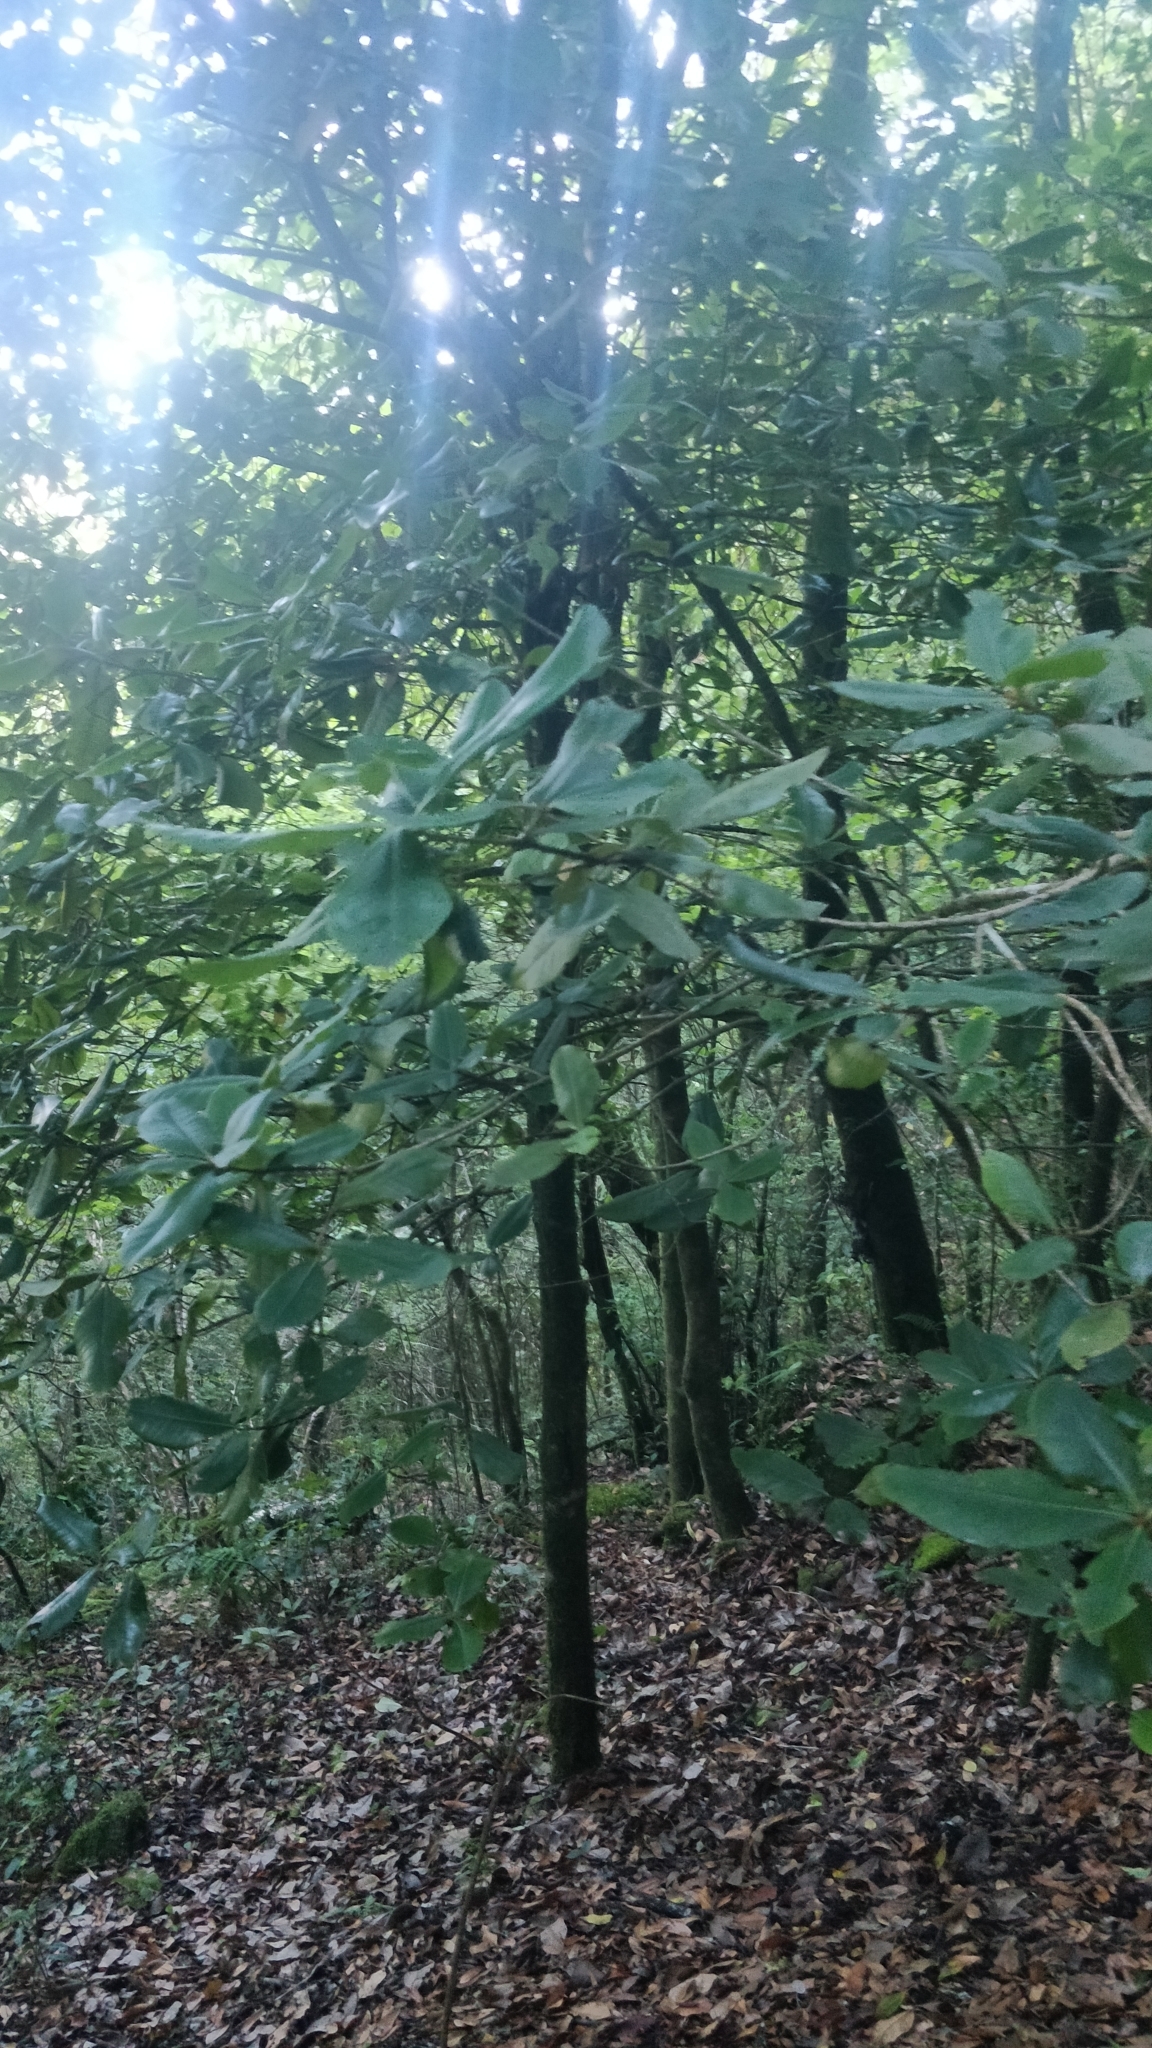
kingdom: Plantae
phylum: Tracheophyta
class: Magnoliopsida
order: Ericales
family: Primulaceae
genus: Heberdenia
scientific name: Heberdenia excelsa
